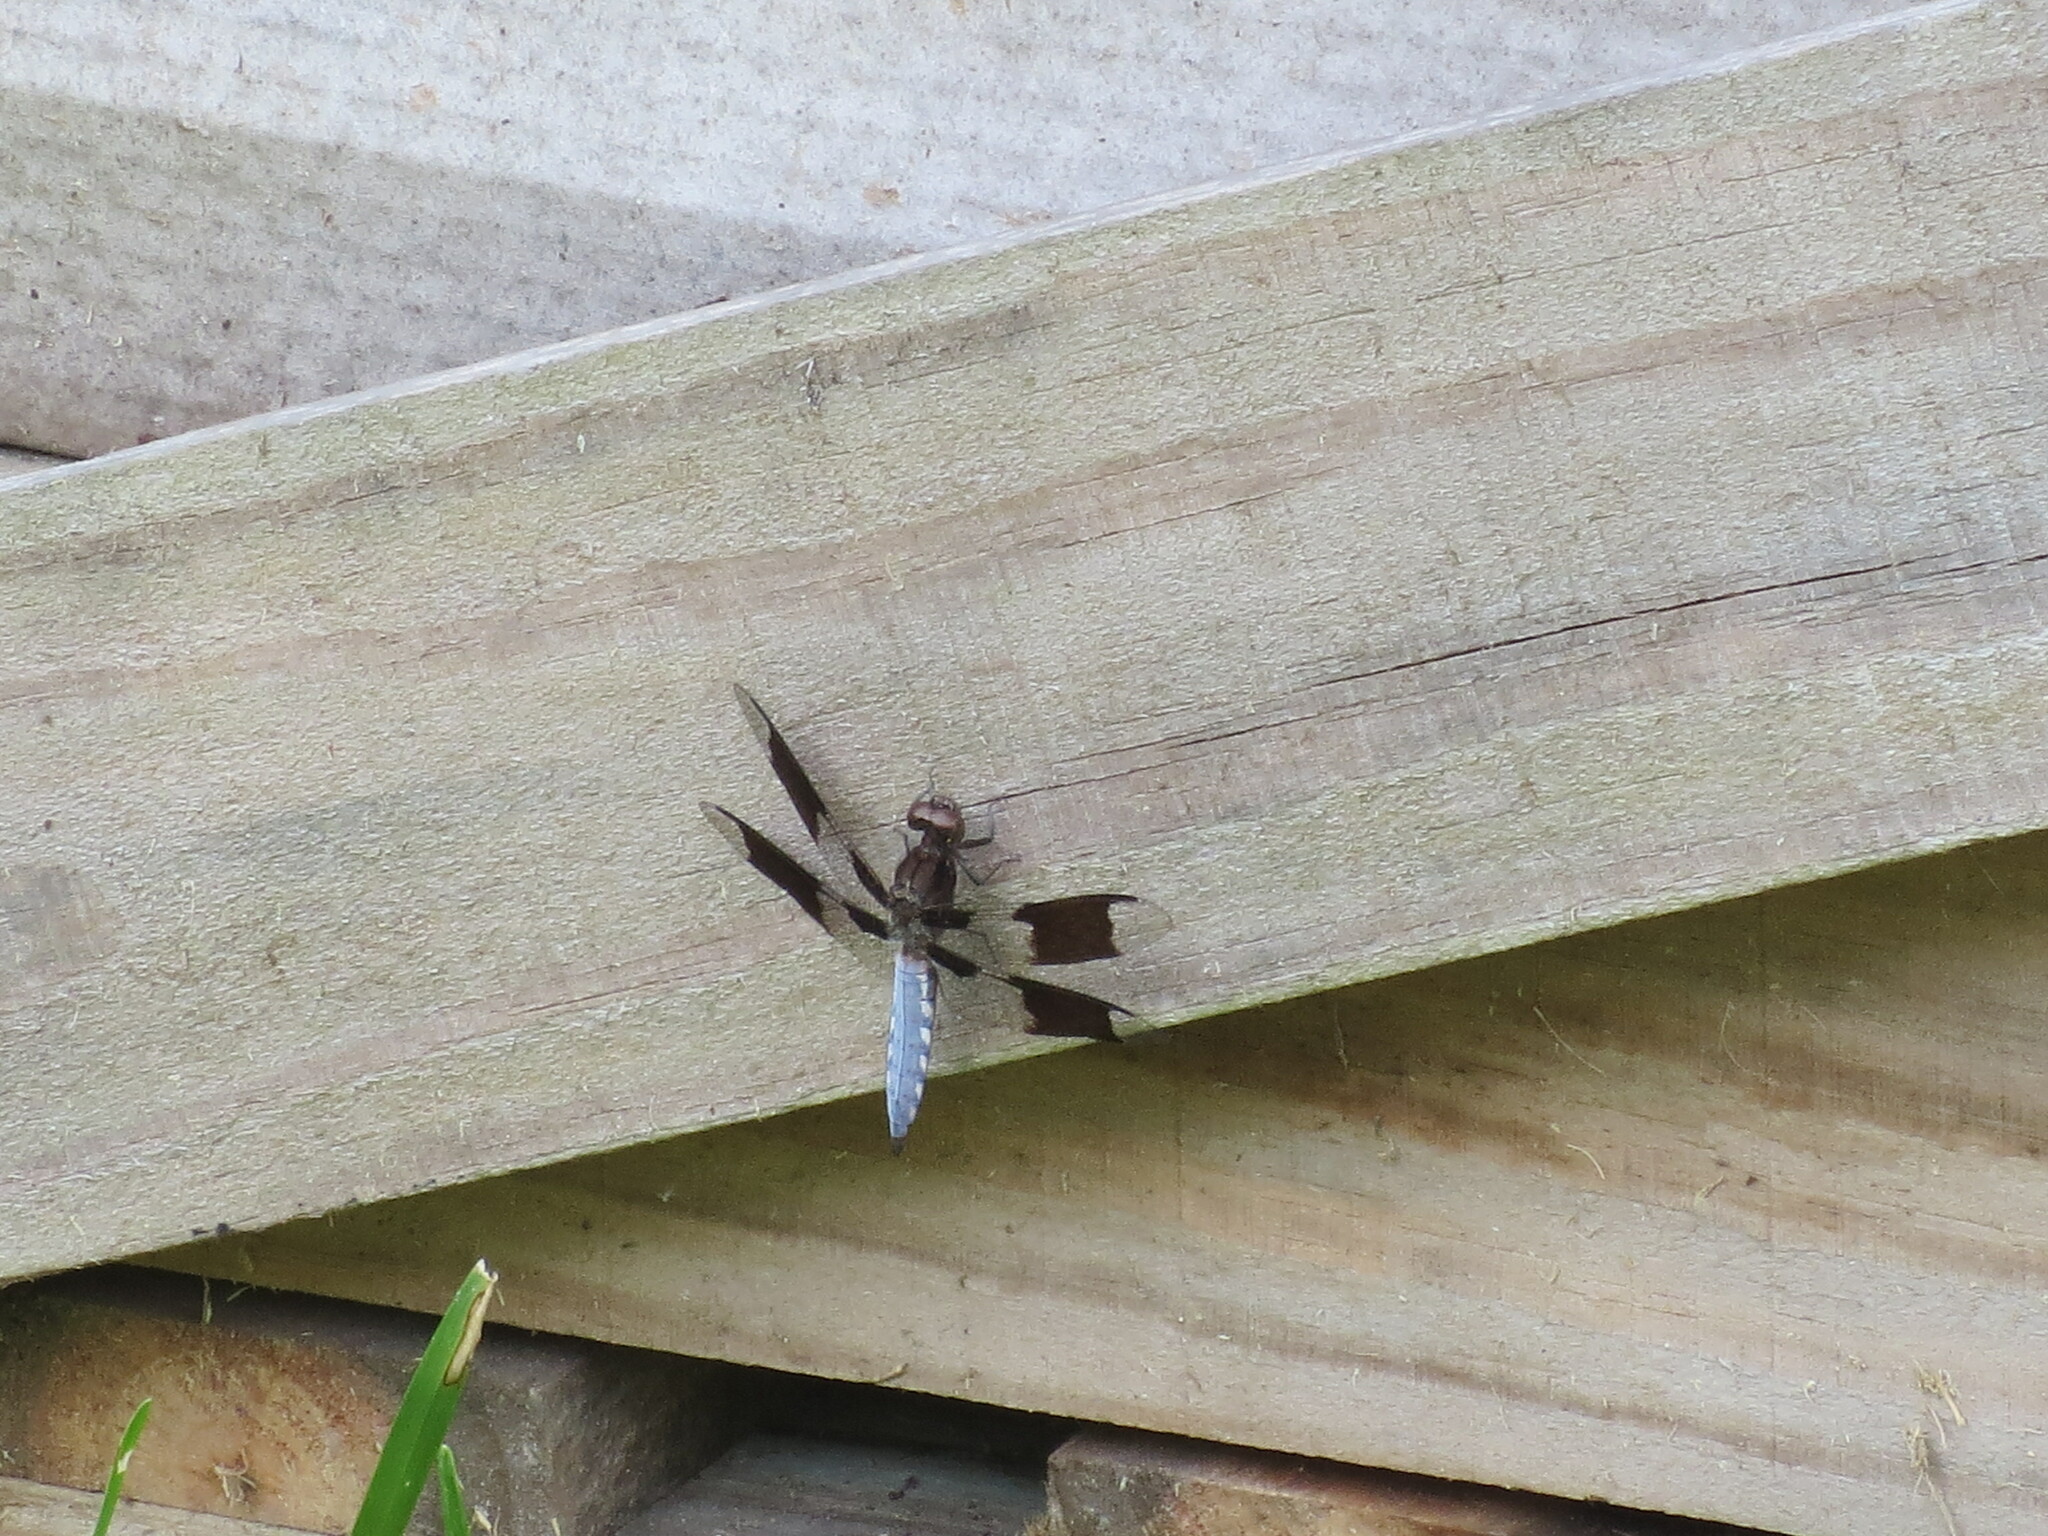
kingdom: Animalia
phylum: Arthropoda
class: Insecta
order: Odonata
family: Libellulidae
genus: Plathemis
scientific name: Plathemis lydia
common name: Common whitetail
